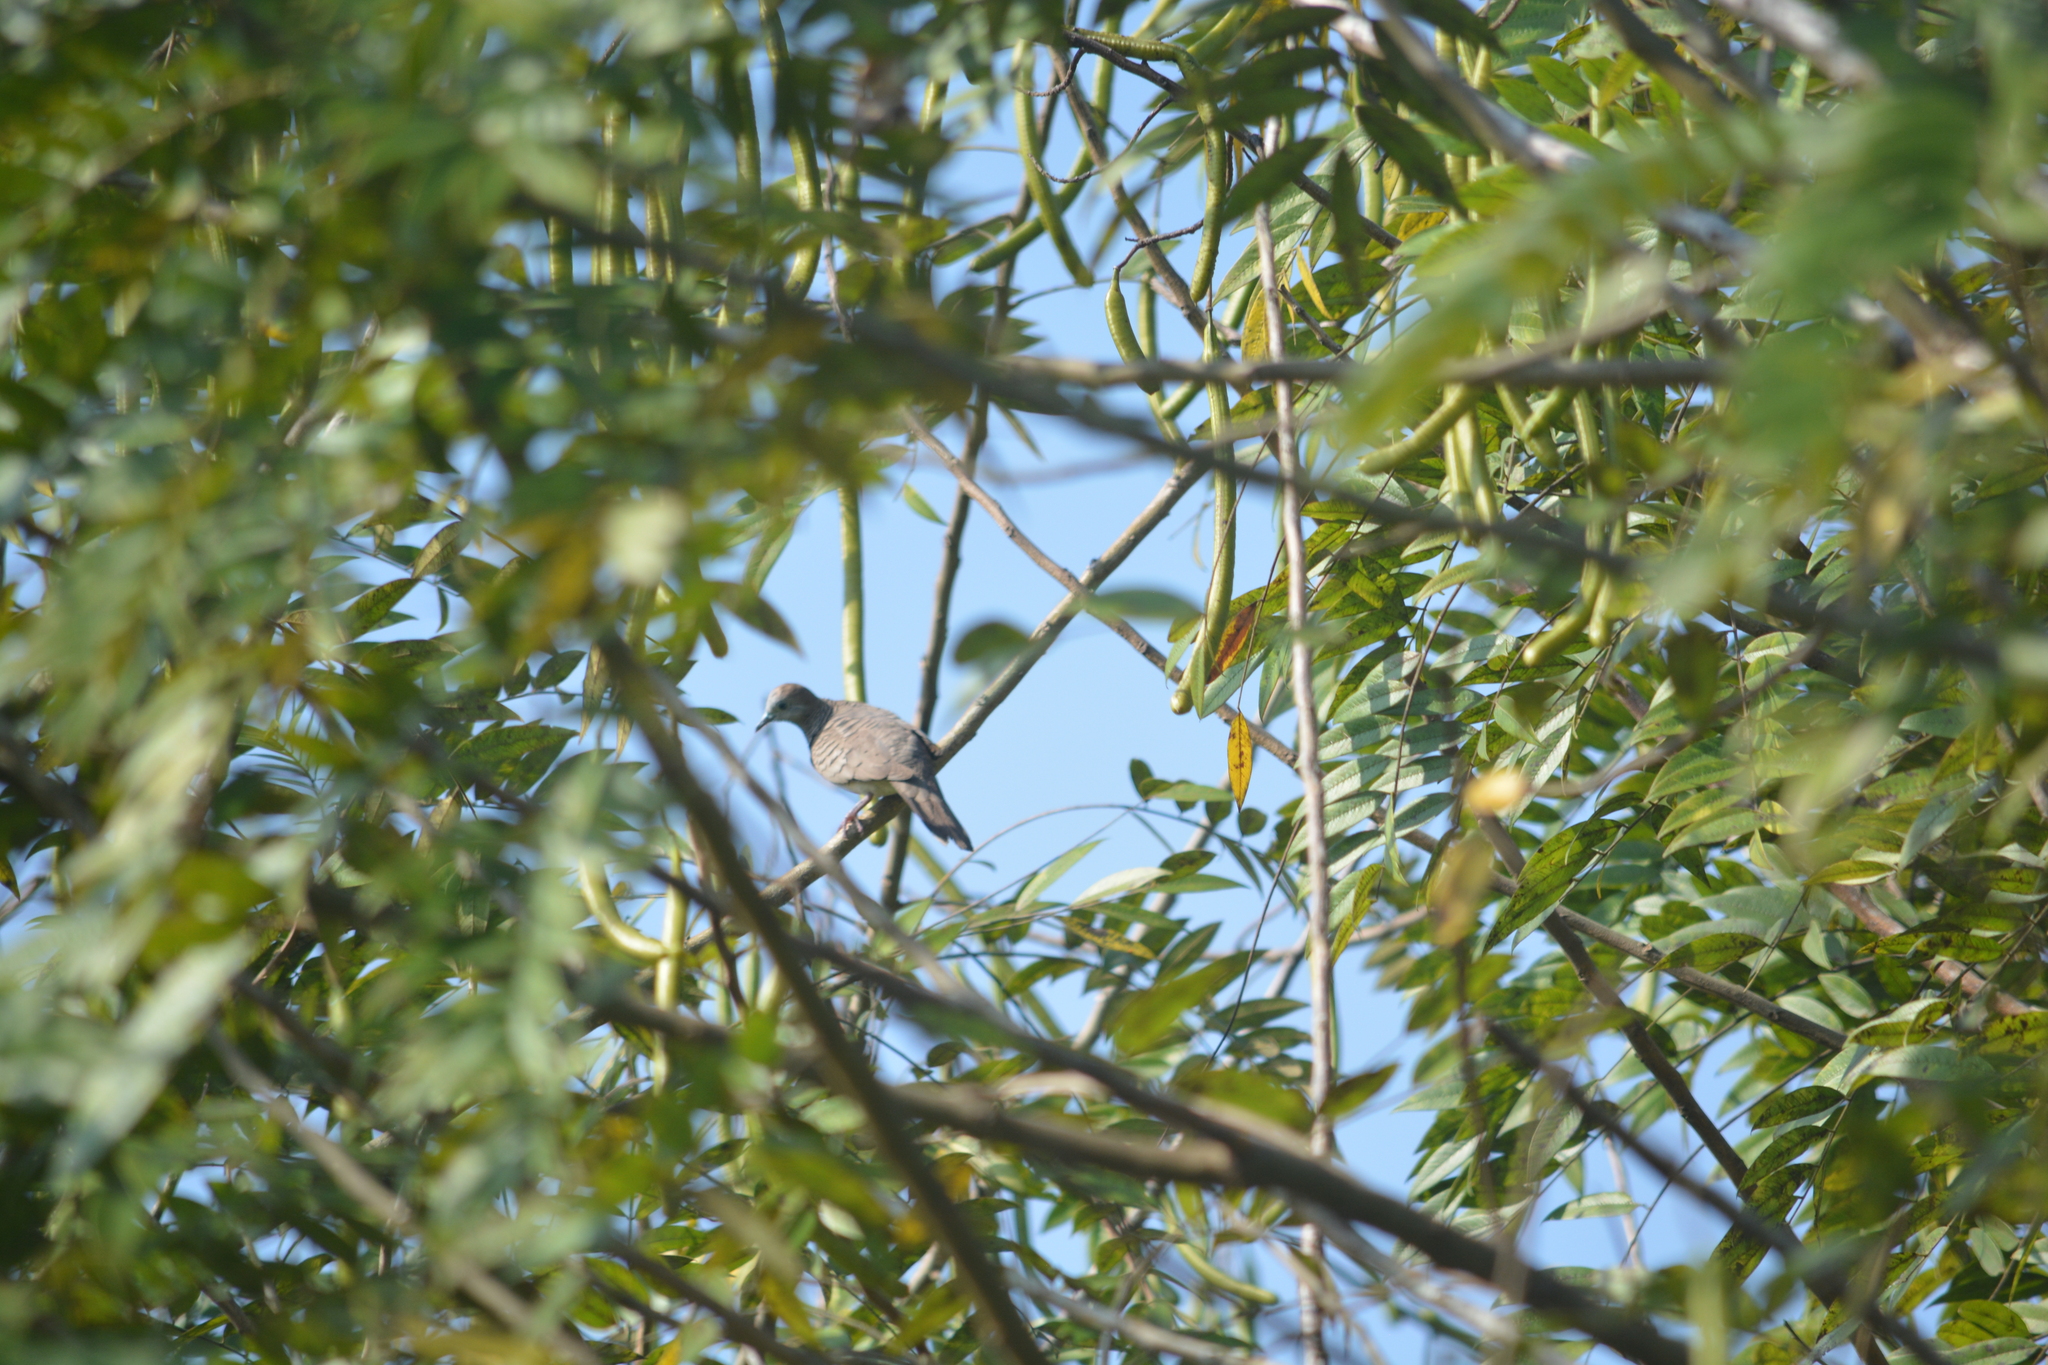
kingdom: Animalia
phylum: Chordata
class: Aves
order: Columbiformes
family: Columbidae
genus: Geopelia
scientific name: Geopelia striata
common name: Zebra dove
